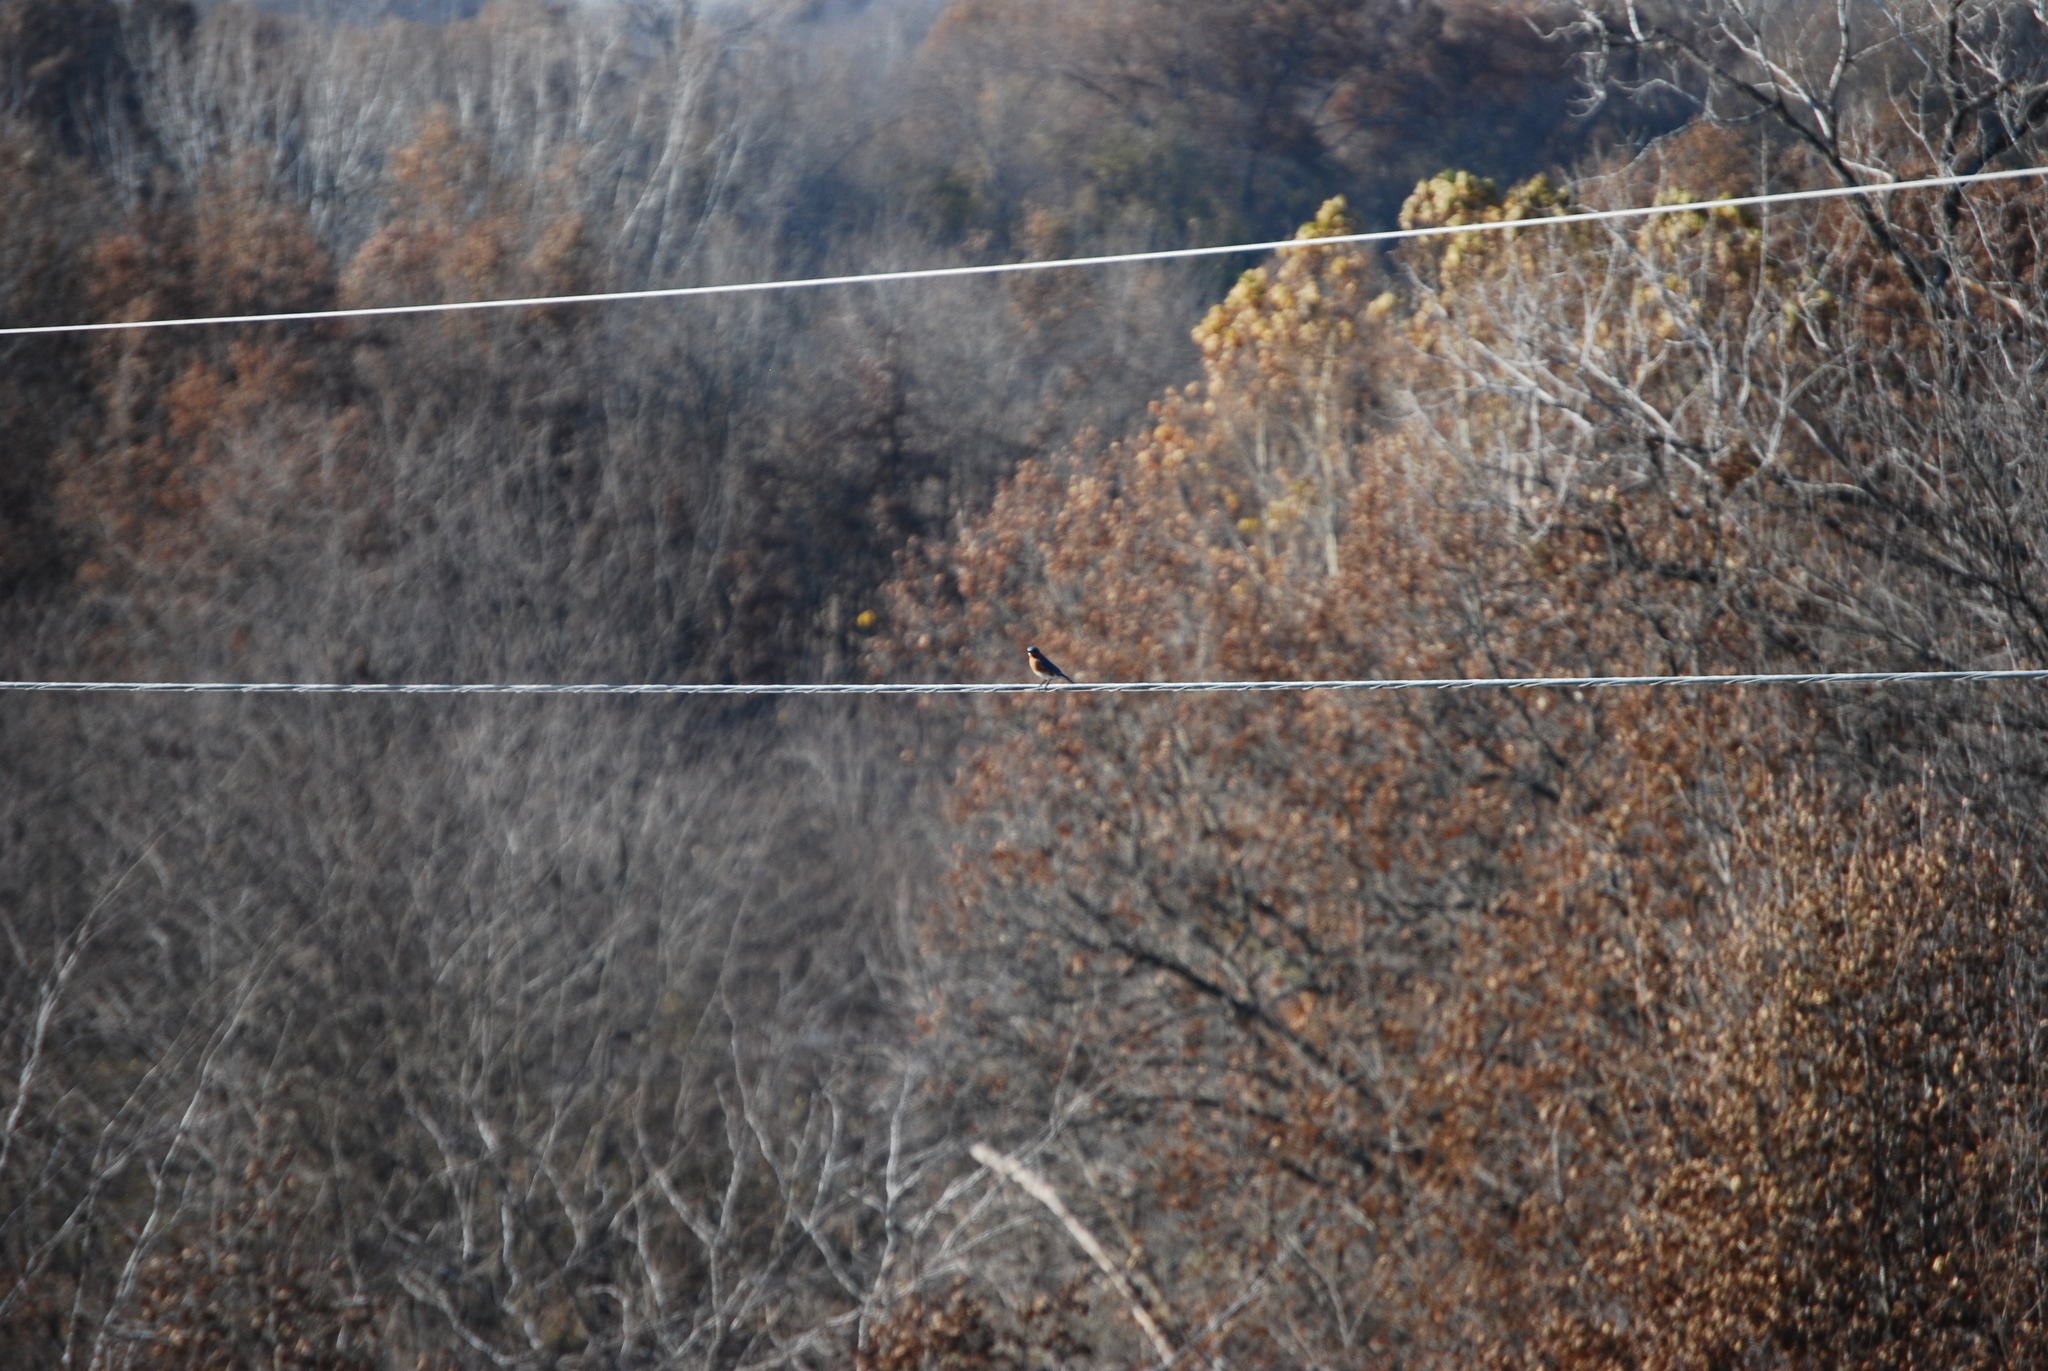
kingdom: Animalia
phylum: Chordata
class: Aves
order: Passeriformes
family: Turdidae
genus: Sialia
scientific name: Sialia sialis
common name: Eastern bluebird
